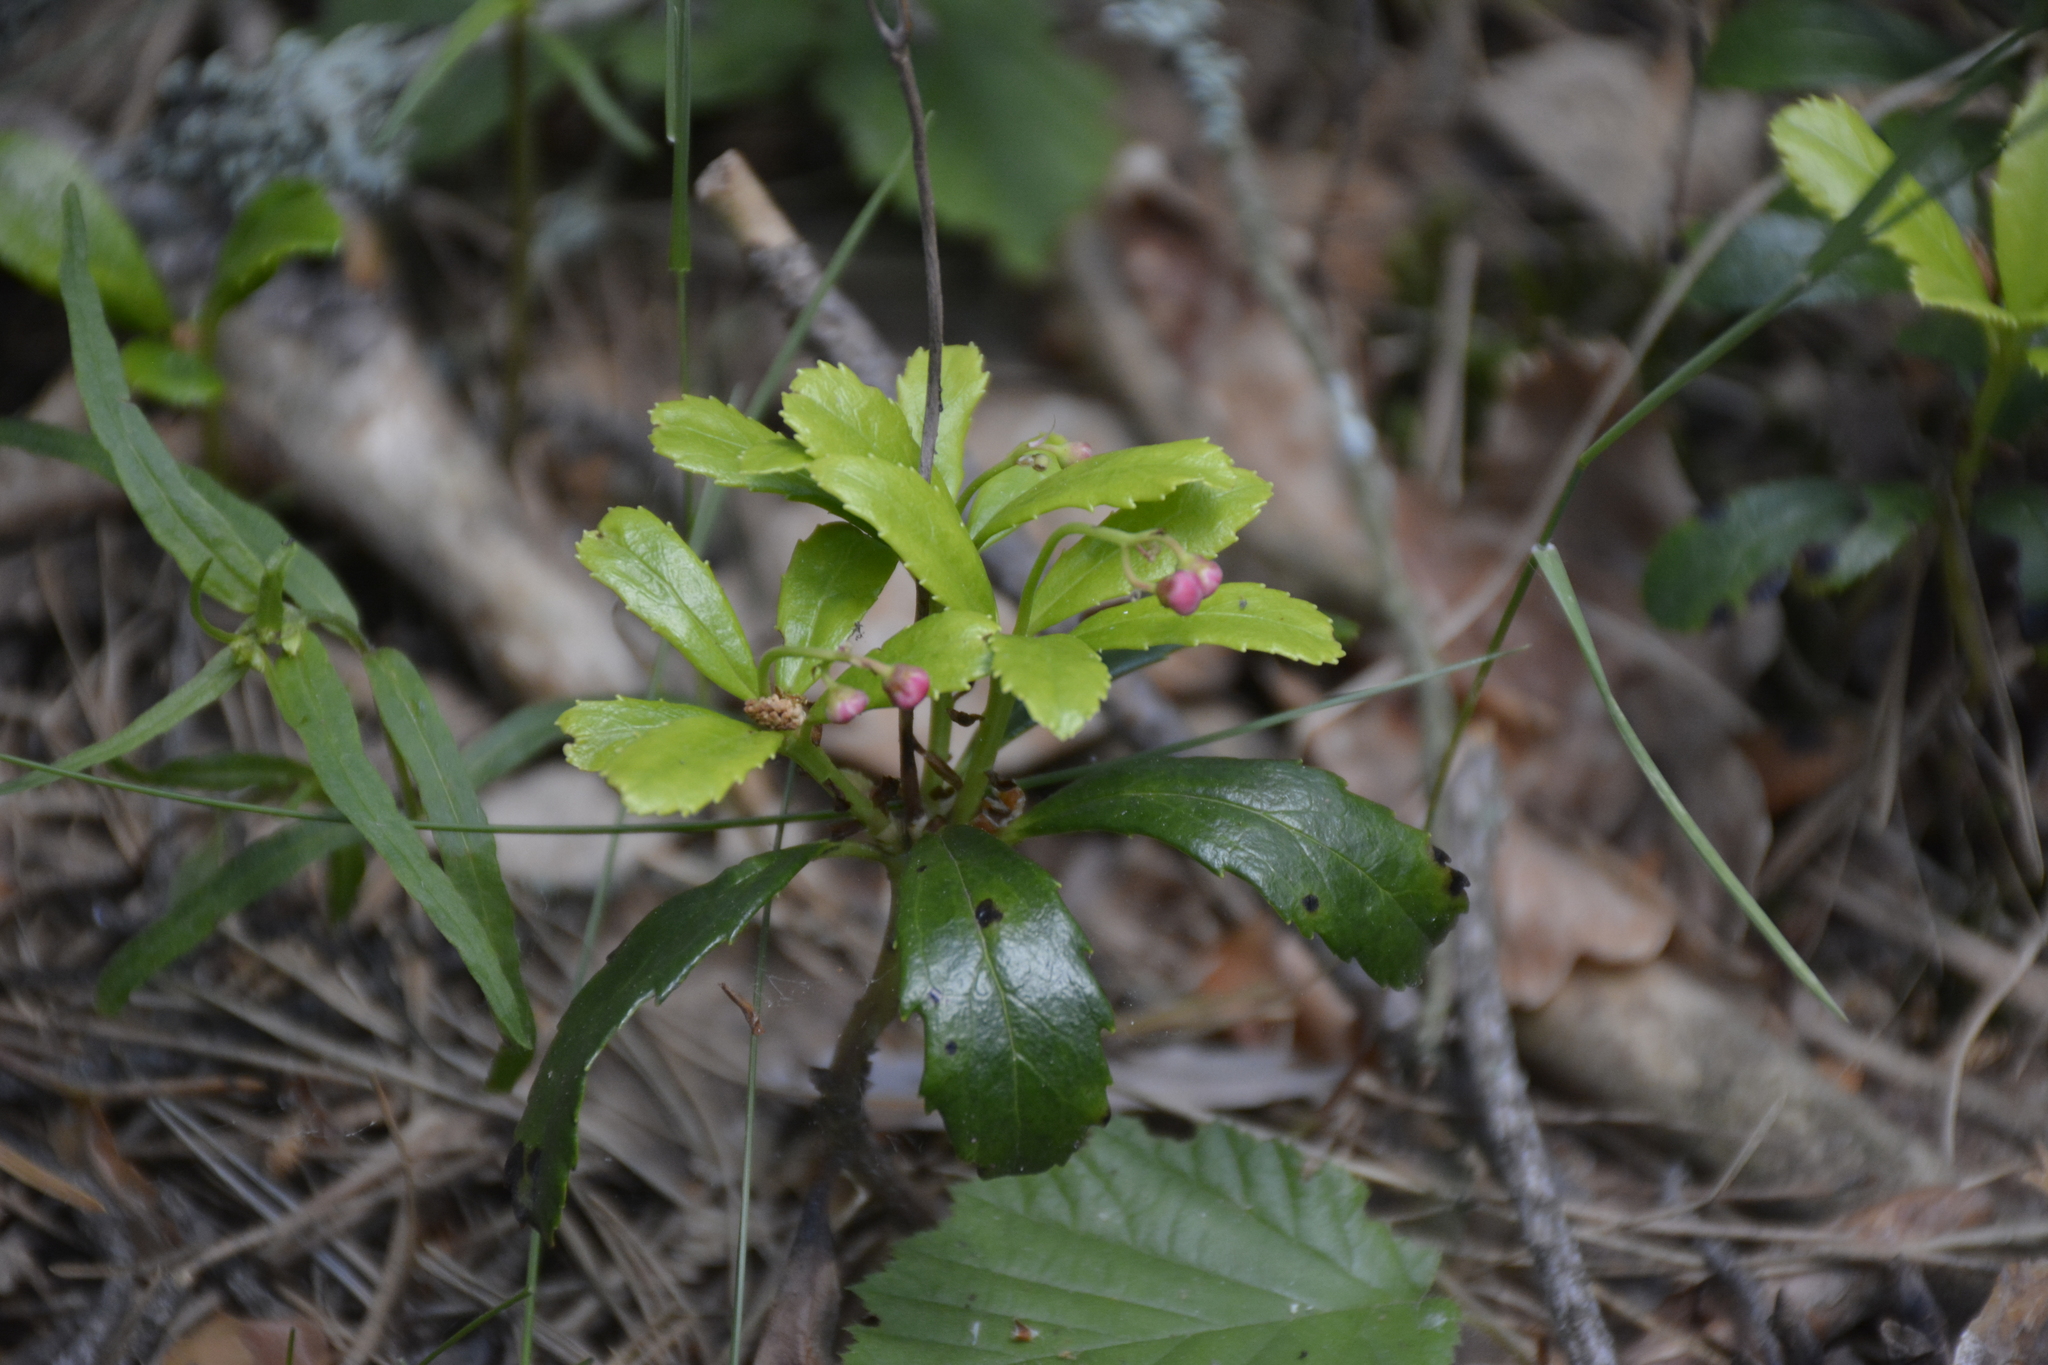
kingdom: Plantae
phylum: Tracheophyta
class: Magnoliopsida
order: Ericales
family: Ericaceae
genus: Chimaphila
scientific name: Chimaphila umbellata
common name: Pipsissewa
